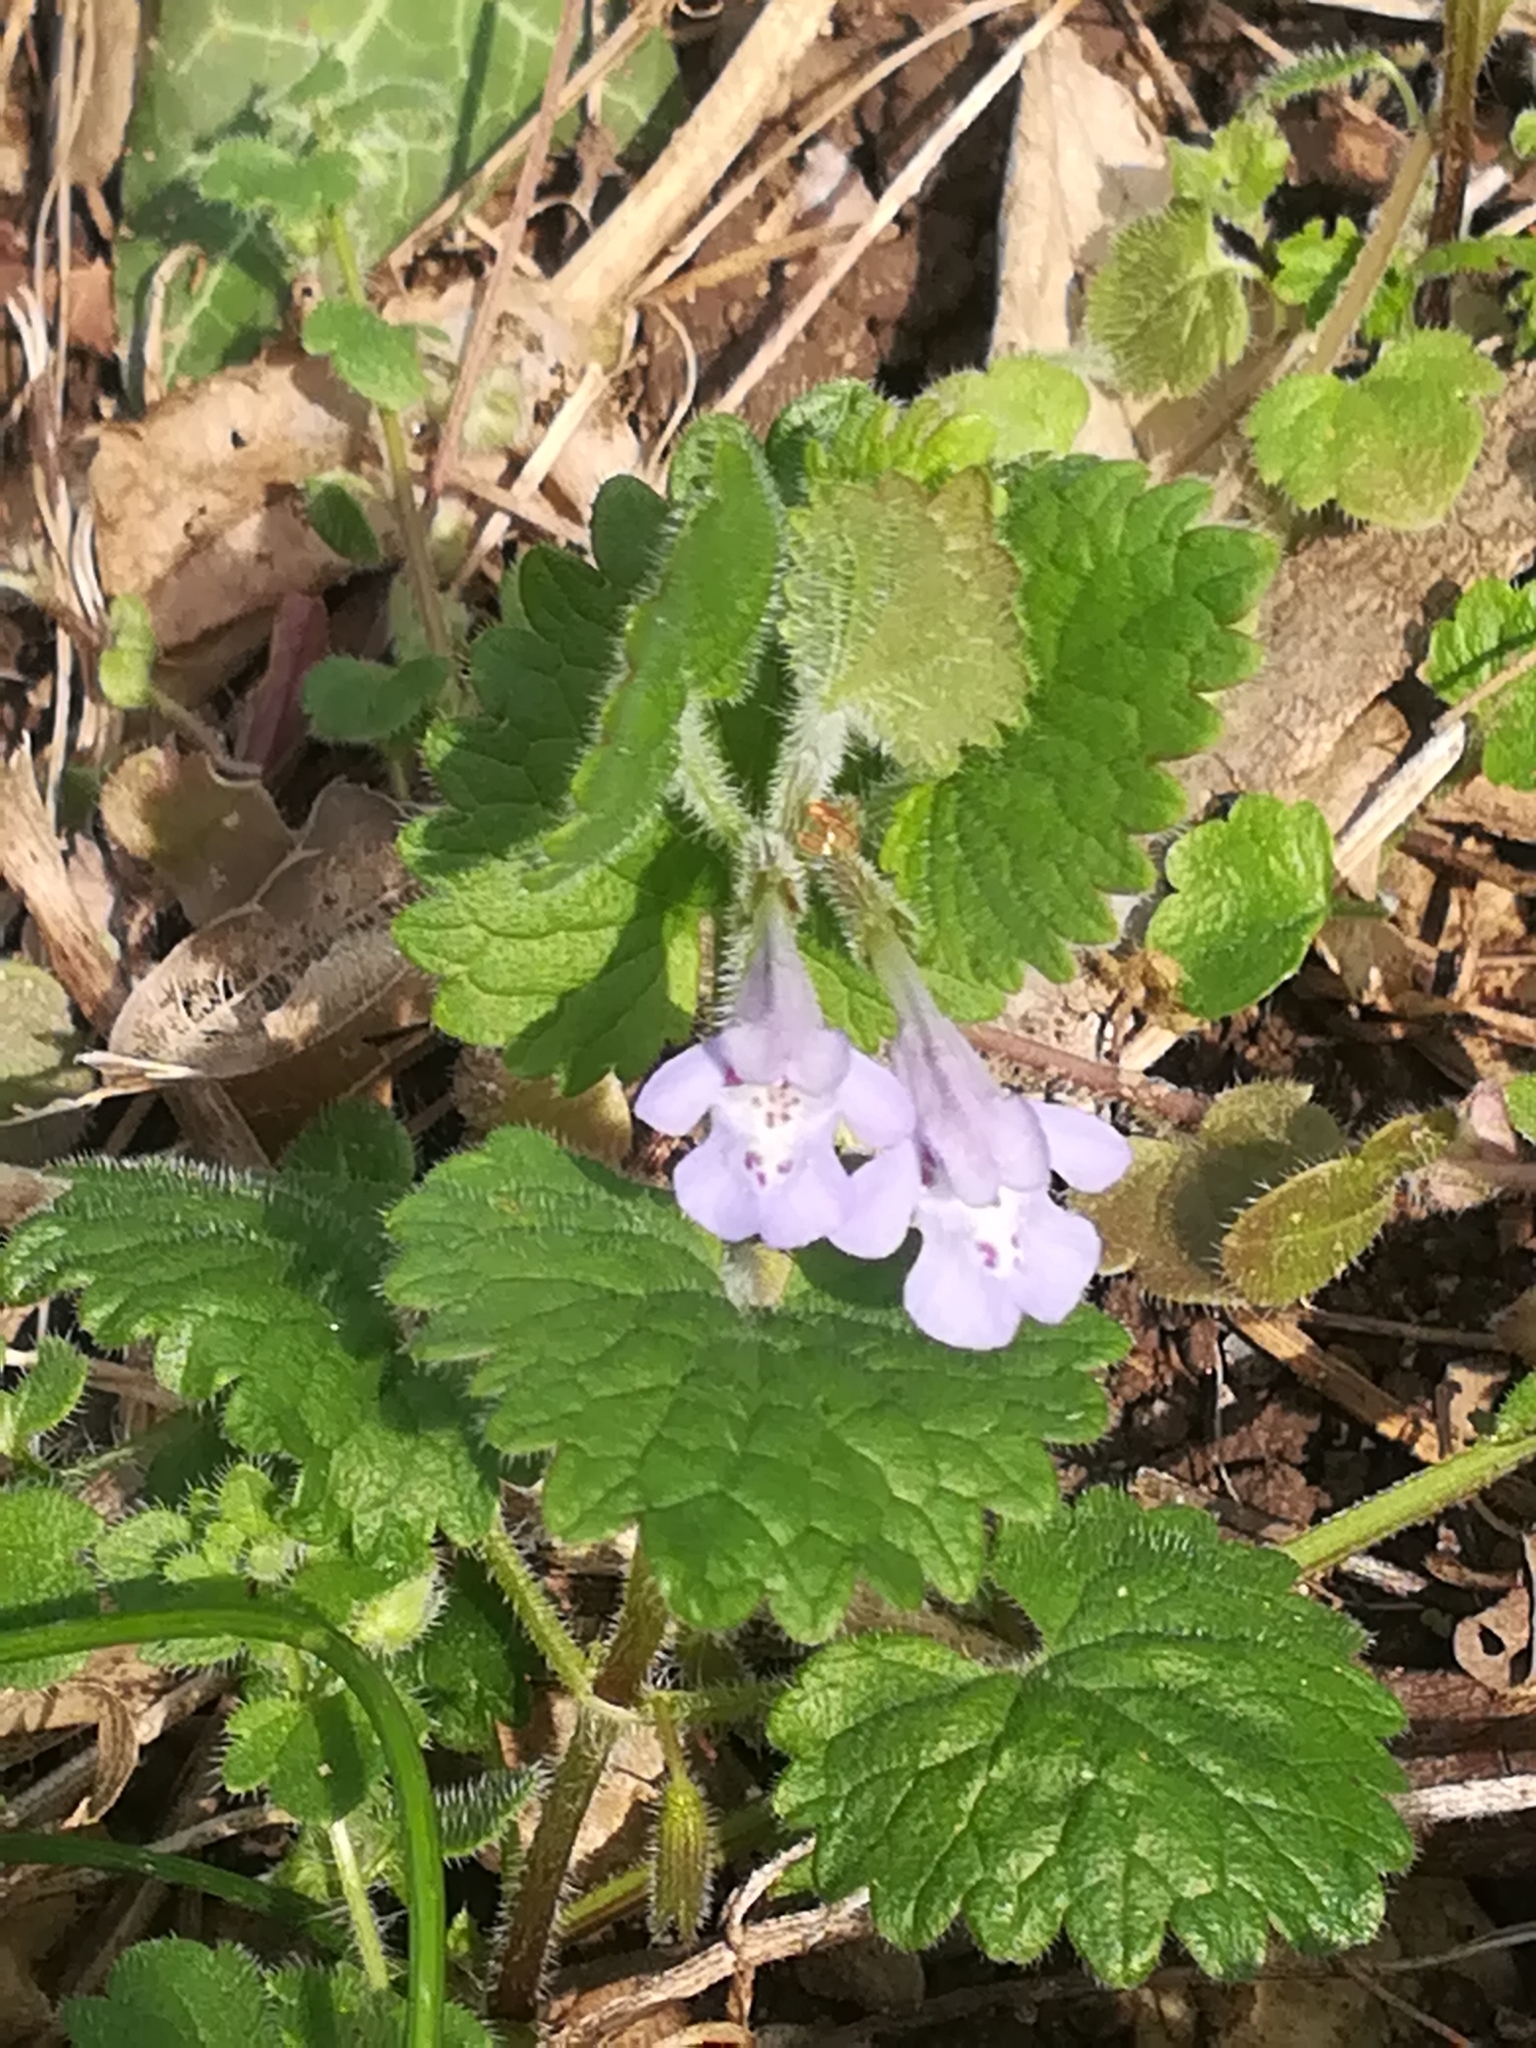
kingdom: Plantae
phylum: Tracheophyta
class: Magnoliopsida
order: Lamiales
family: Lamiaceae
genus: Glechoma
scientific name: Glechoma hederacea
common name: Ground ivy
